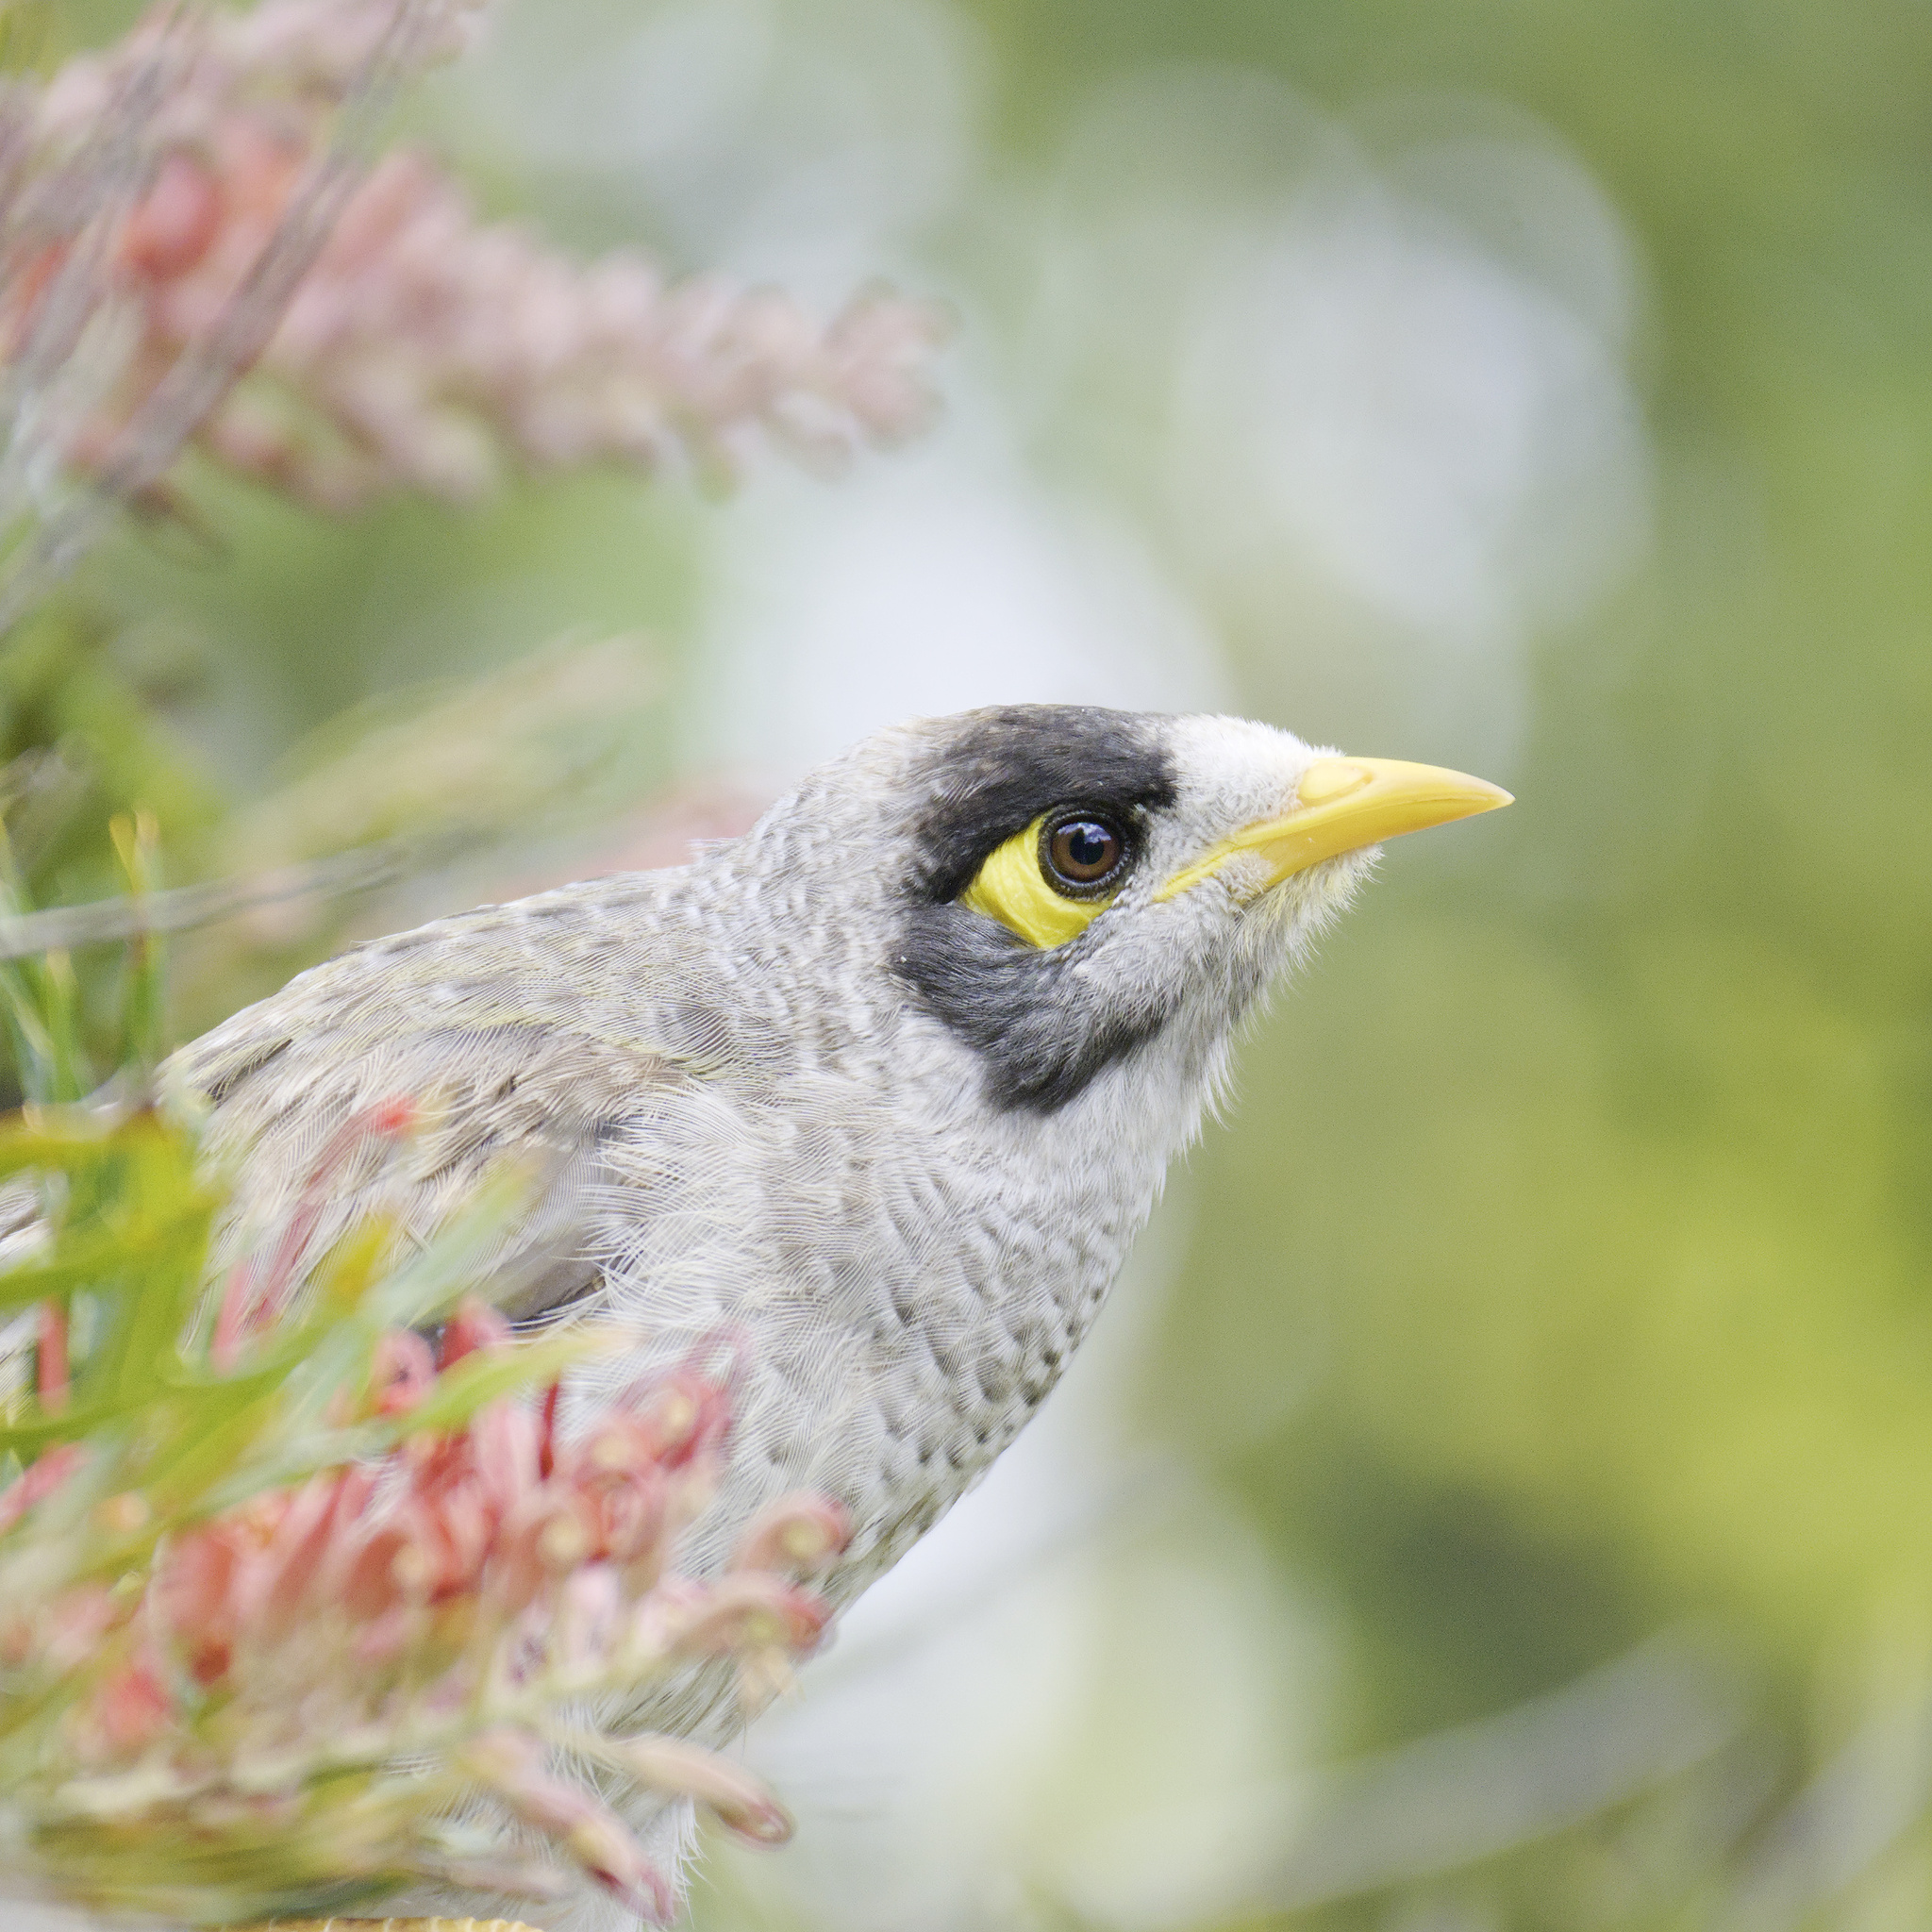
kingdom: Animalia
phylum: Chordata
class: Aves
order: Passeriformes
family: Meliphagidae
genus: Manorina
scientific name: Manorina melanocephala
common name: Noisy miner
